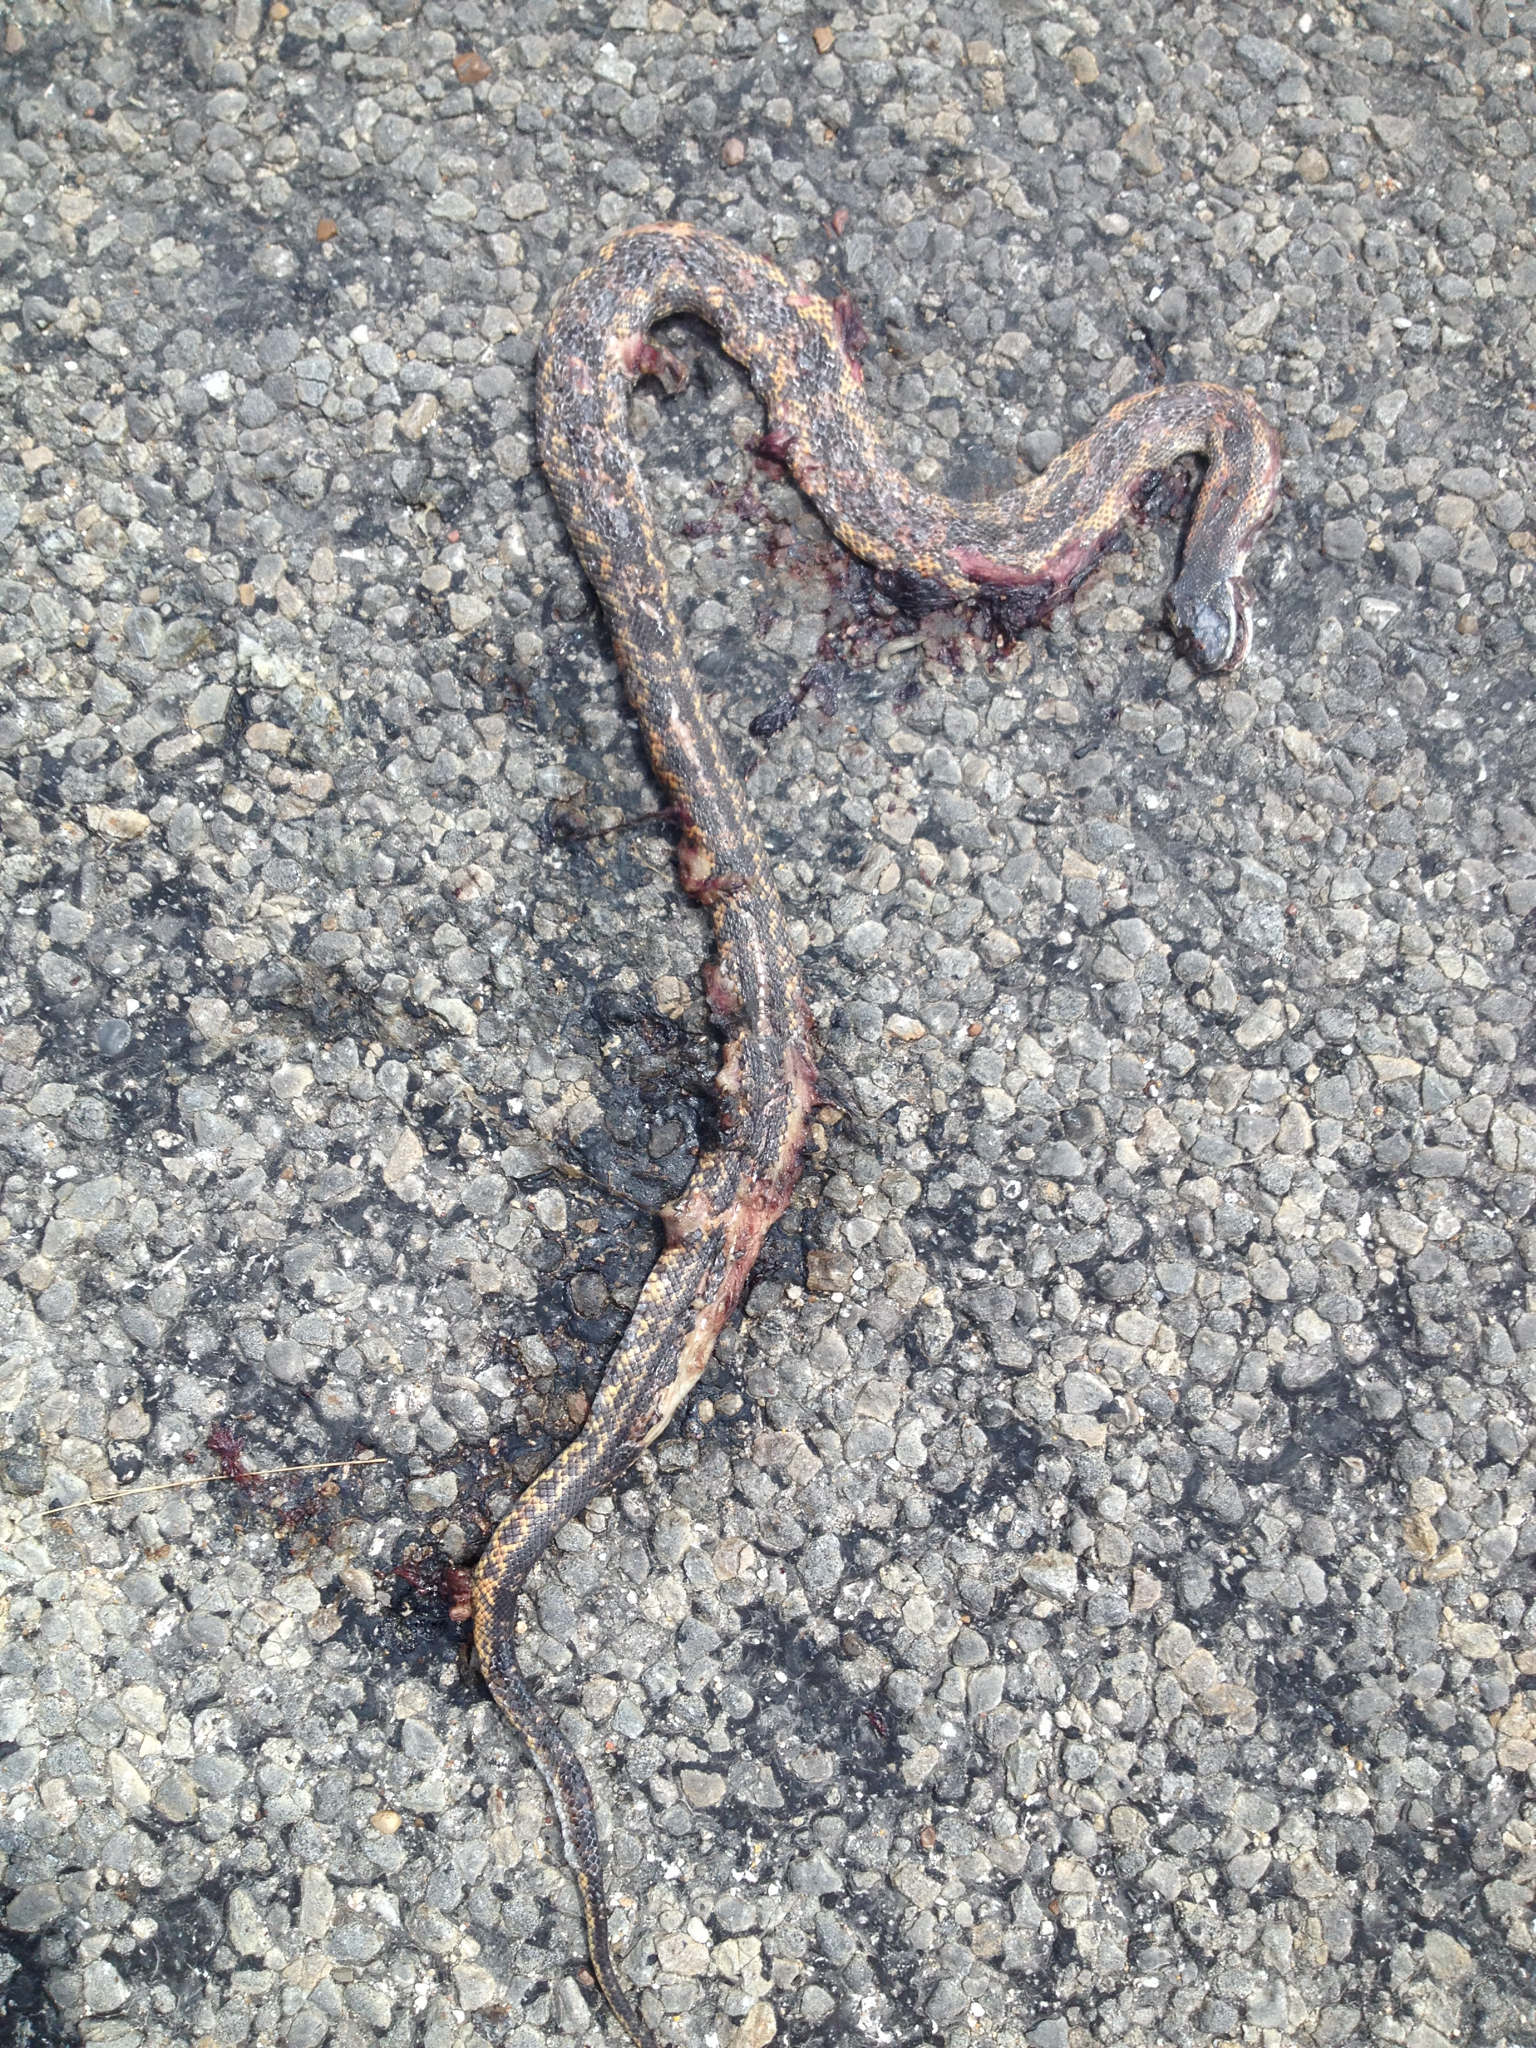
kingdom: Animalia
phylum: Chordata
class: Squamata
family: Colubridae
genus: Pantherophis
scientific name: Pantherophis obsoletus
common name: Black rat snake
